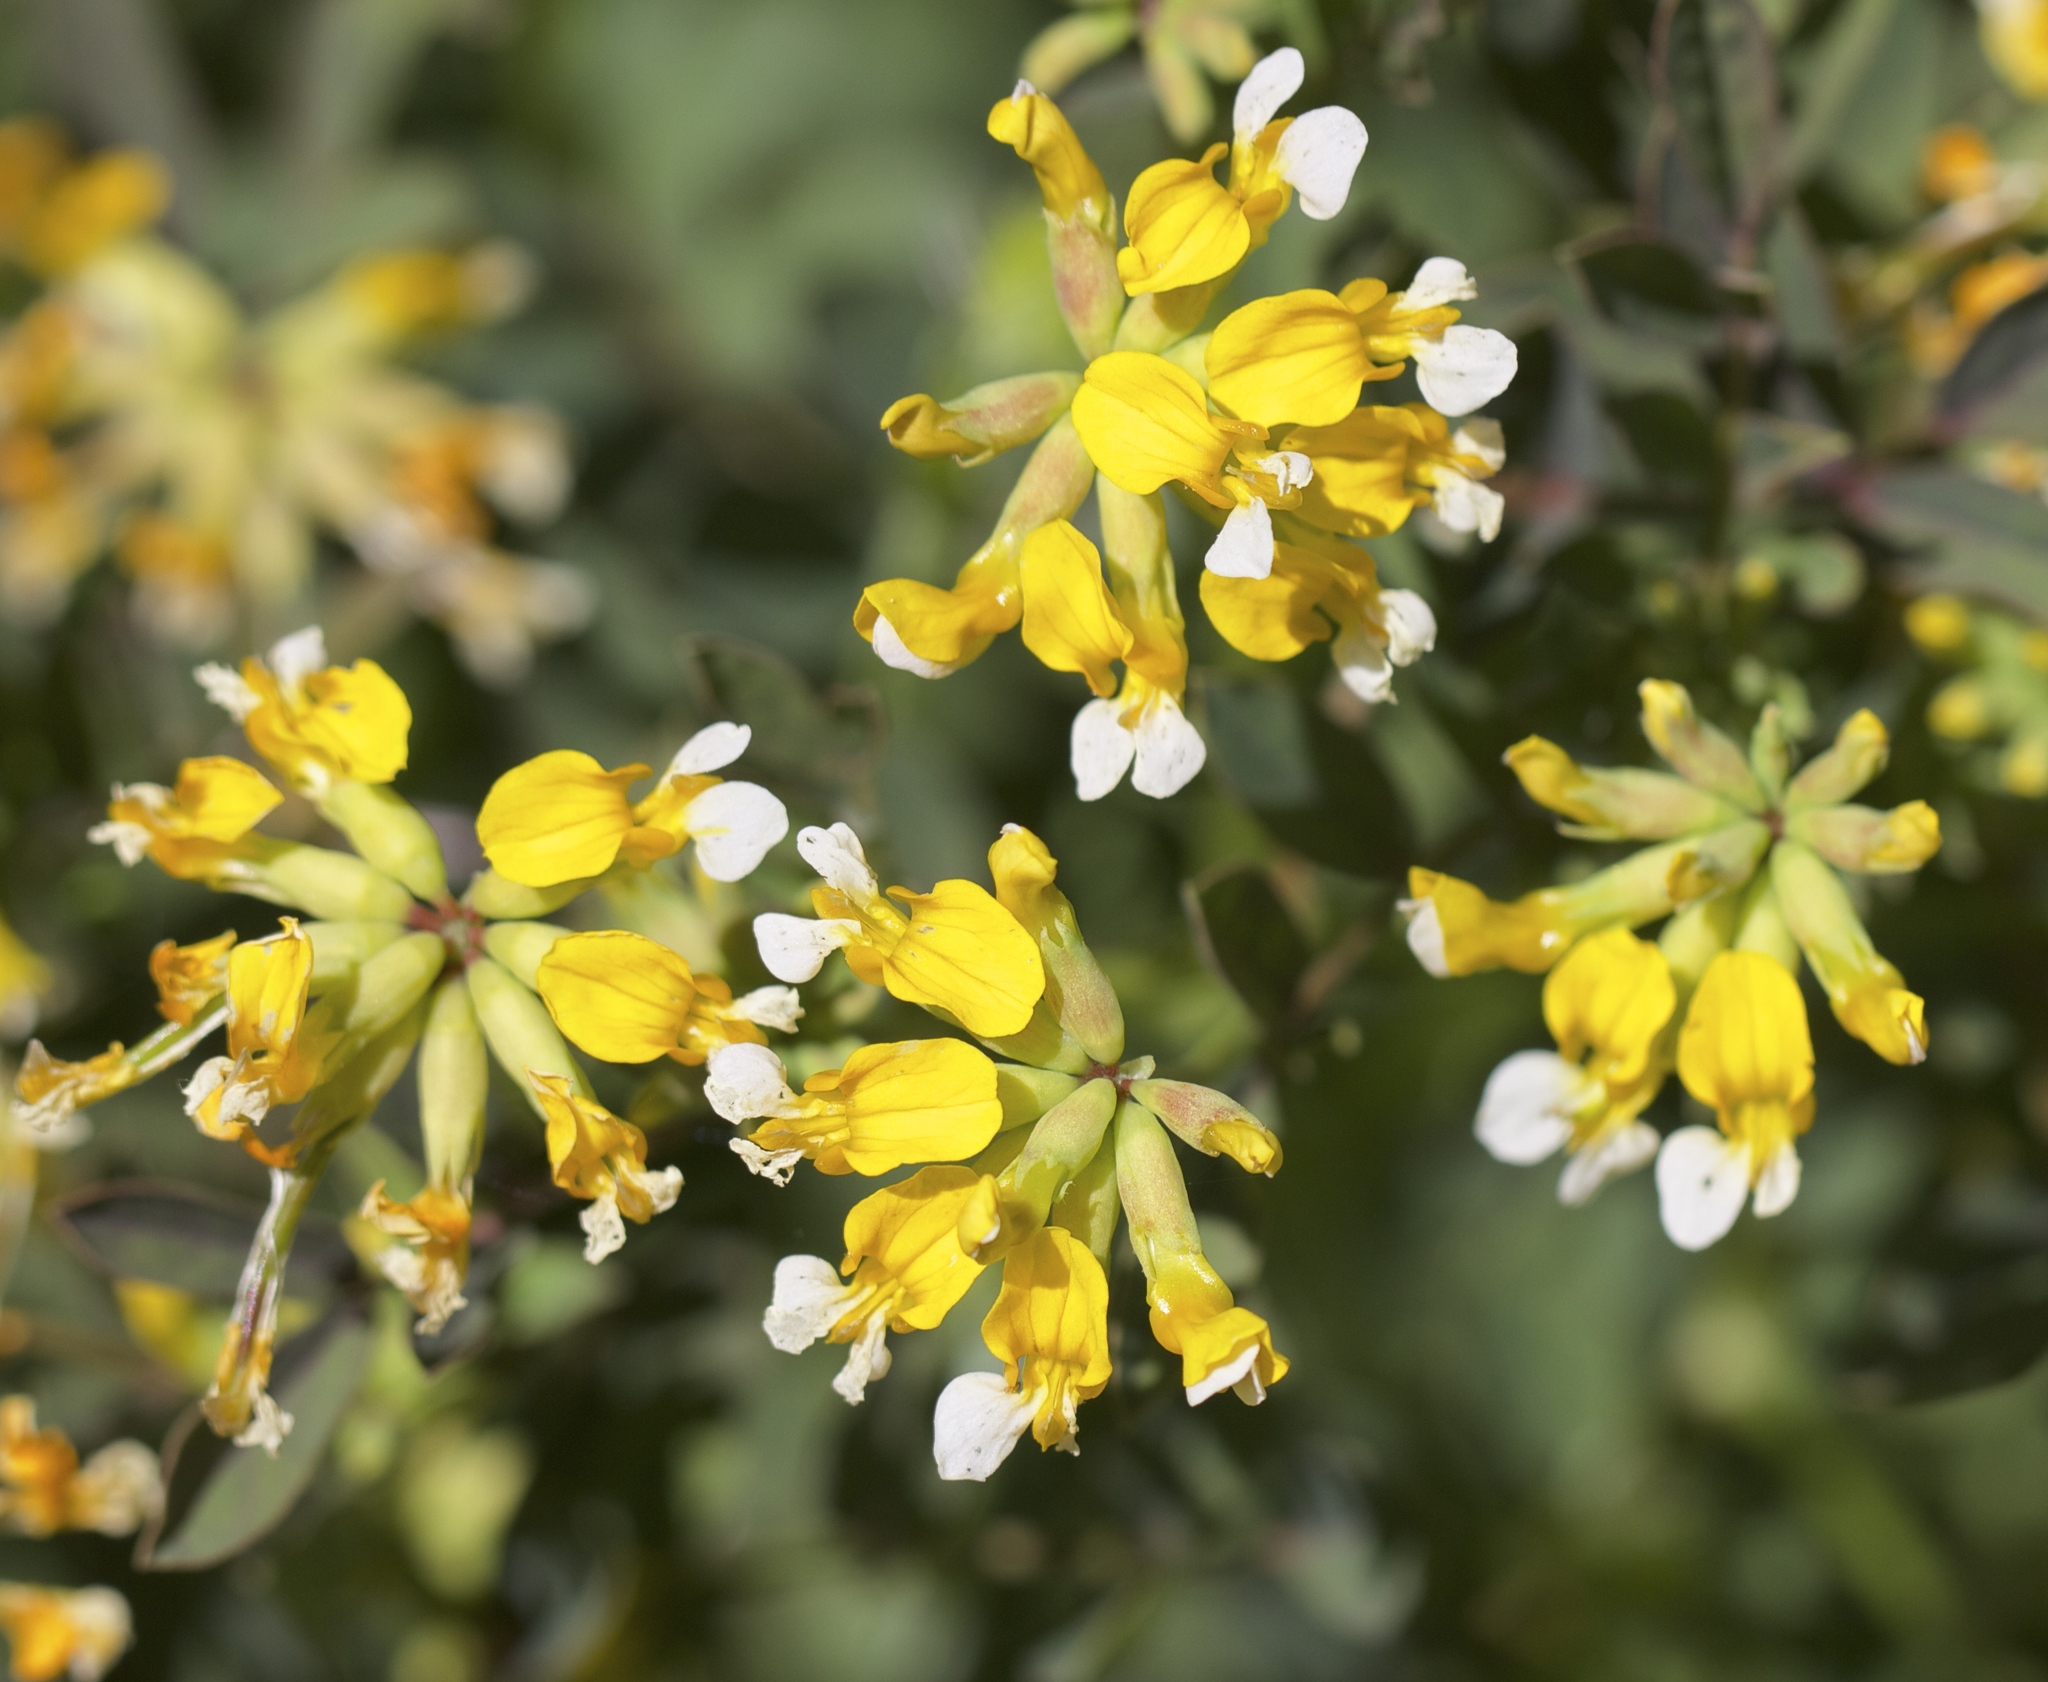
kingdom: Plantae
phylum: Tracheophyta
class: Magnoliopsida
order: Fabales
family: Fabaceae
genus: Hosackia
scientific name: Hosackia pinnata
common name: Bog bird's-foot trefoil
